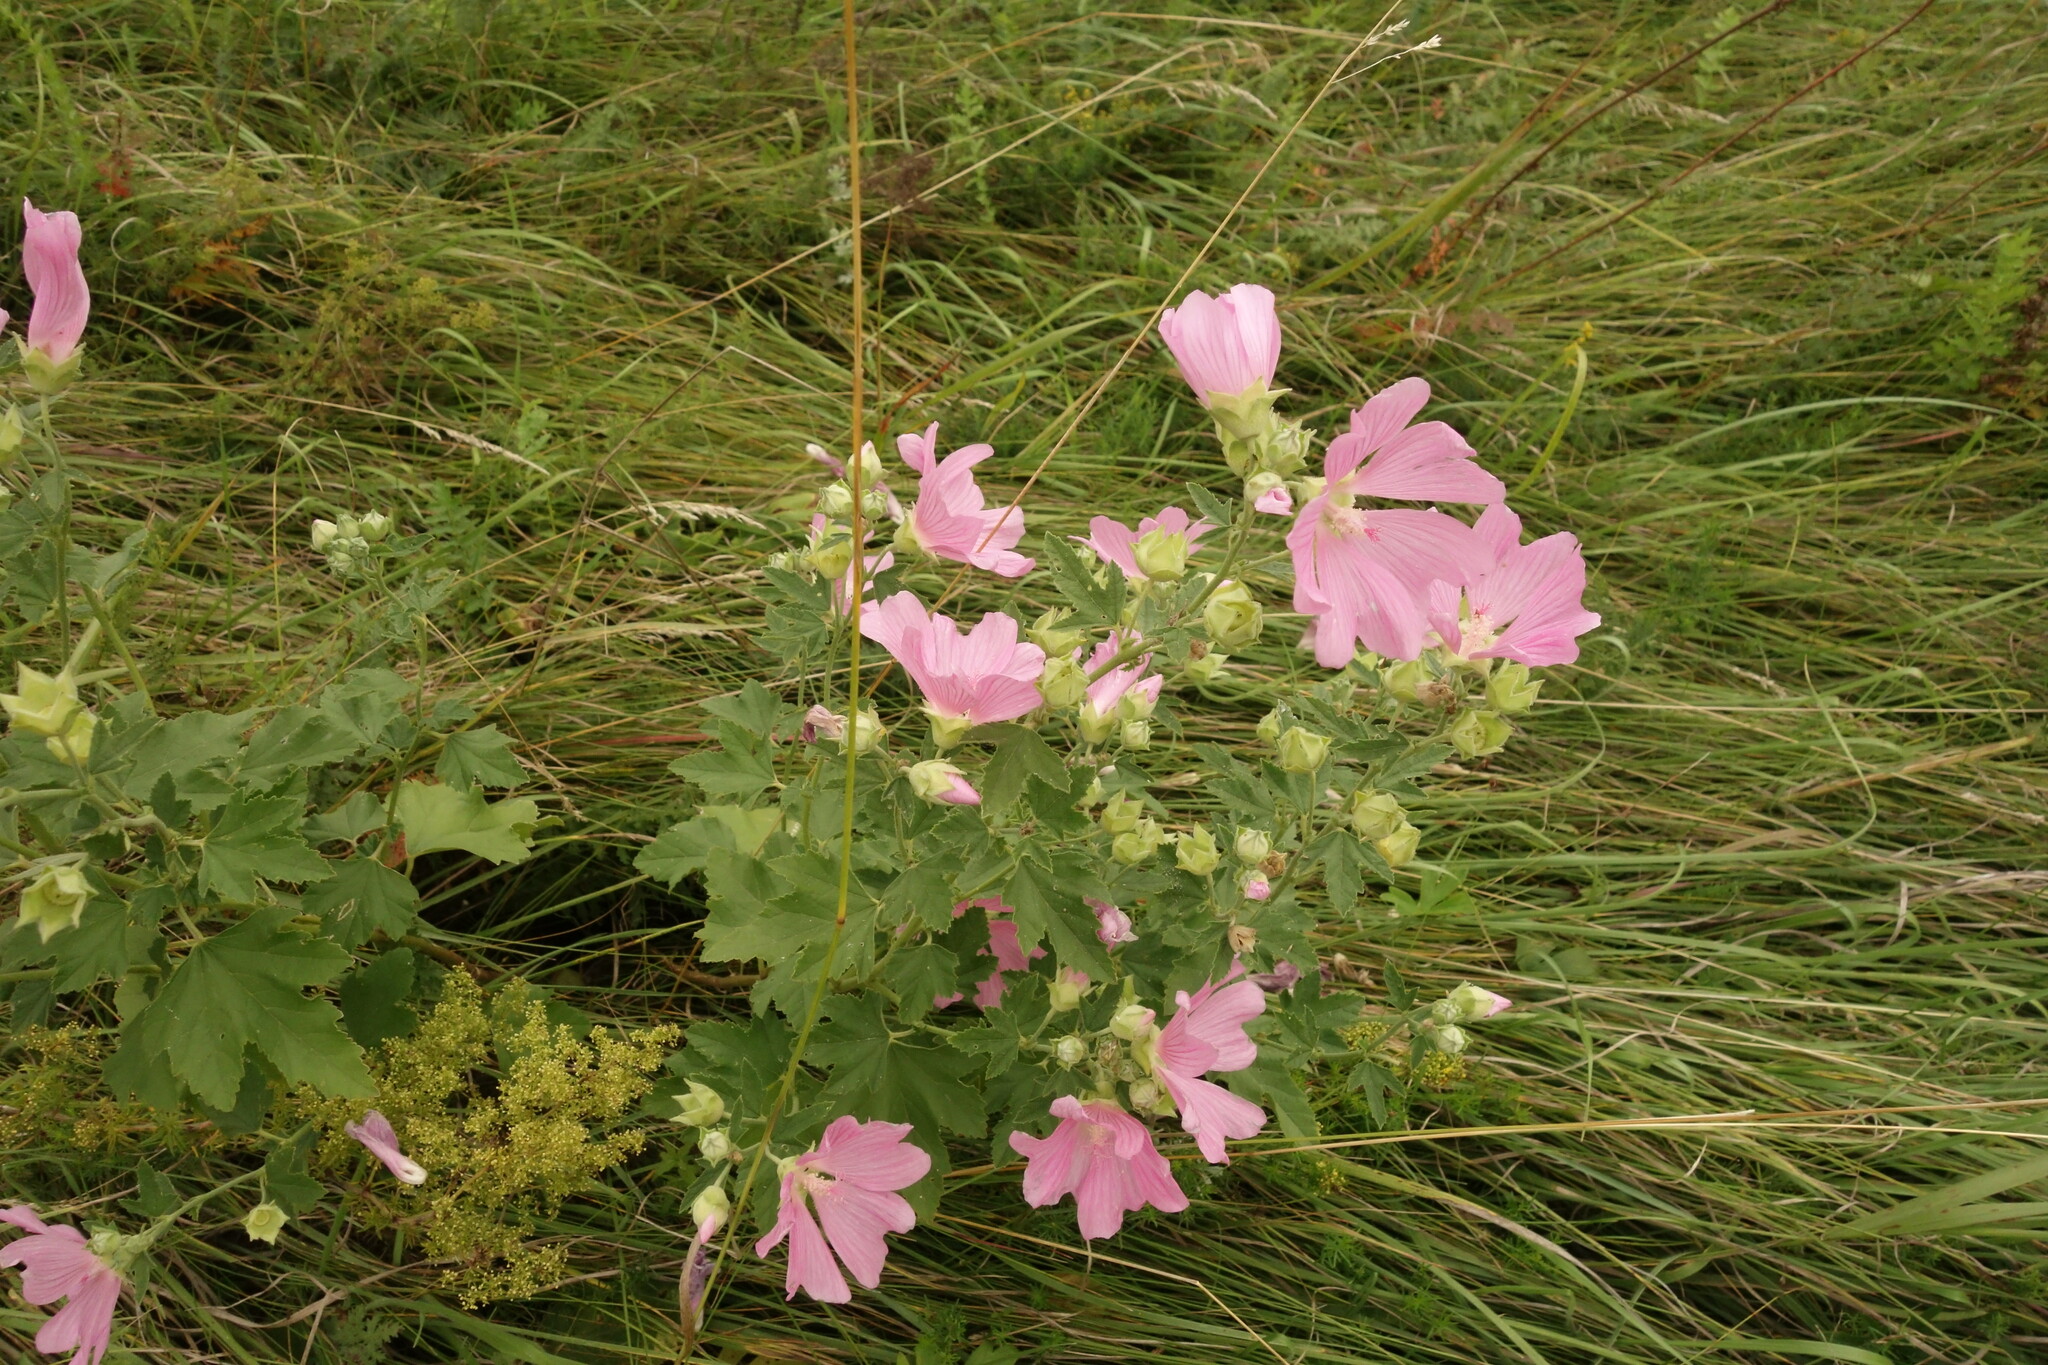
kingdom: Plantae
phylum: Tracheophyta
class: Magnoliopsida
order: Malvales
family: Malvaceae
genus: Malva
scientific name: Malva thuringiaca
